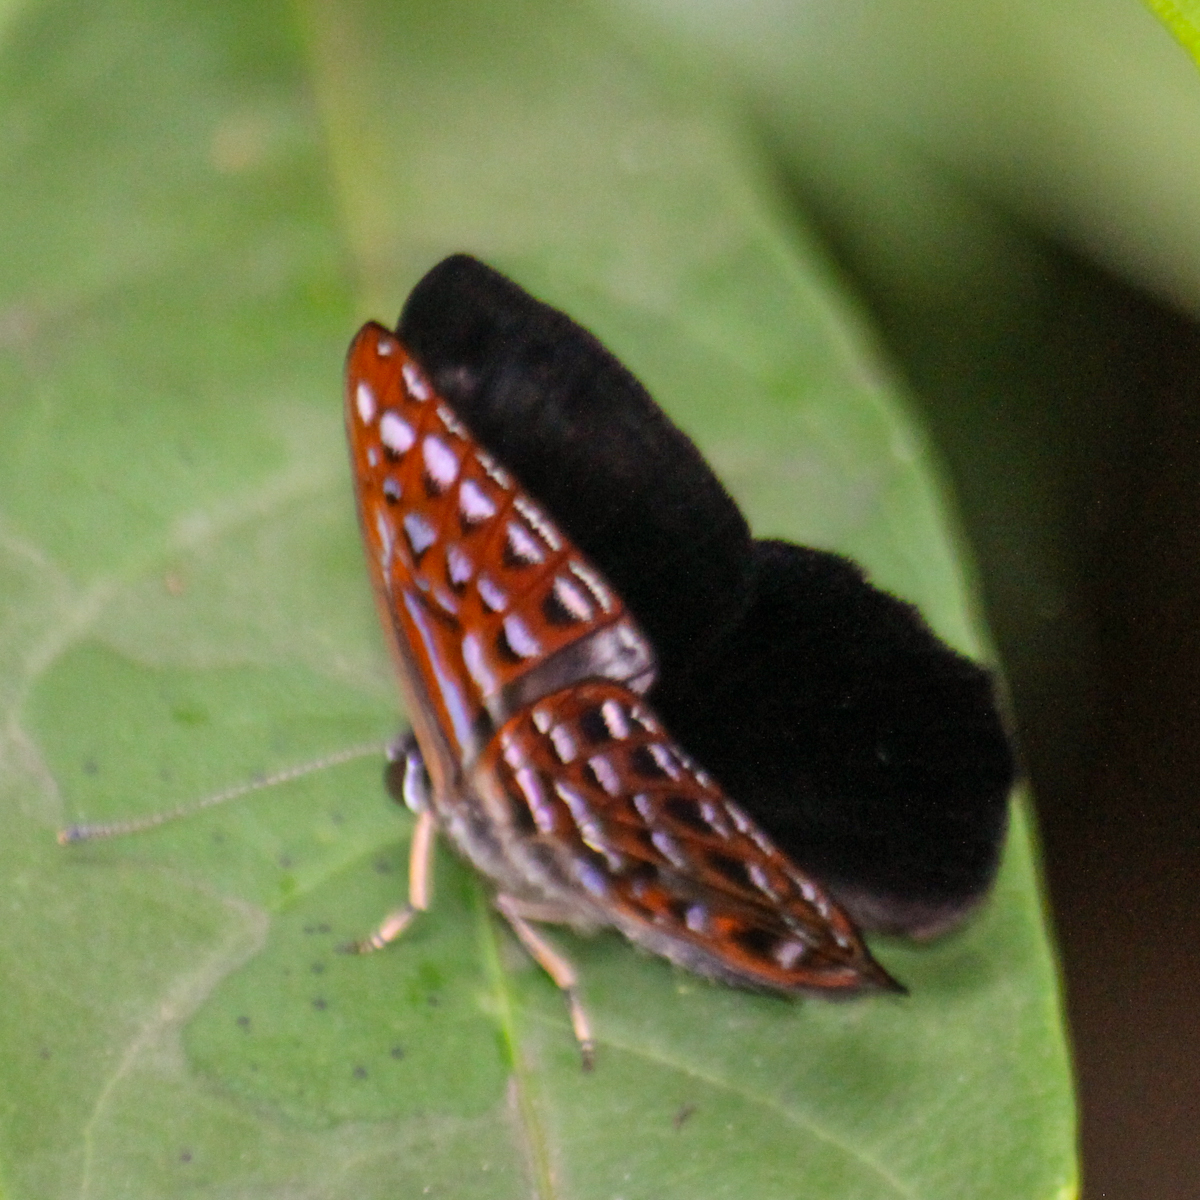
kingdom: Animalia
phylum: Arthropoda
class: Insecta
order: Lepidoptera
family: Riodinidae
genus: Laxita
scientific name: Laxita thuisto
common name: Lesser harlequin
